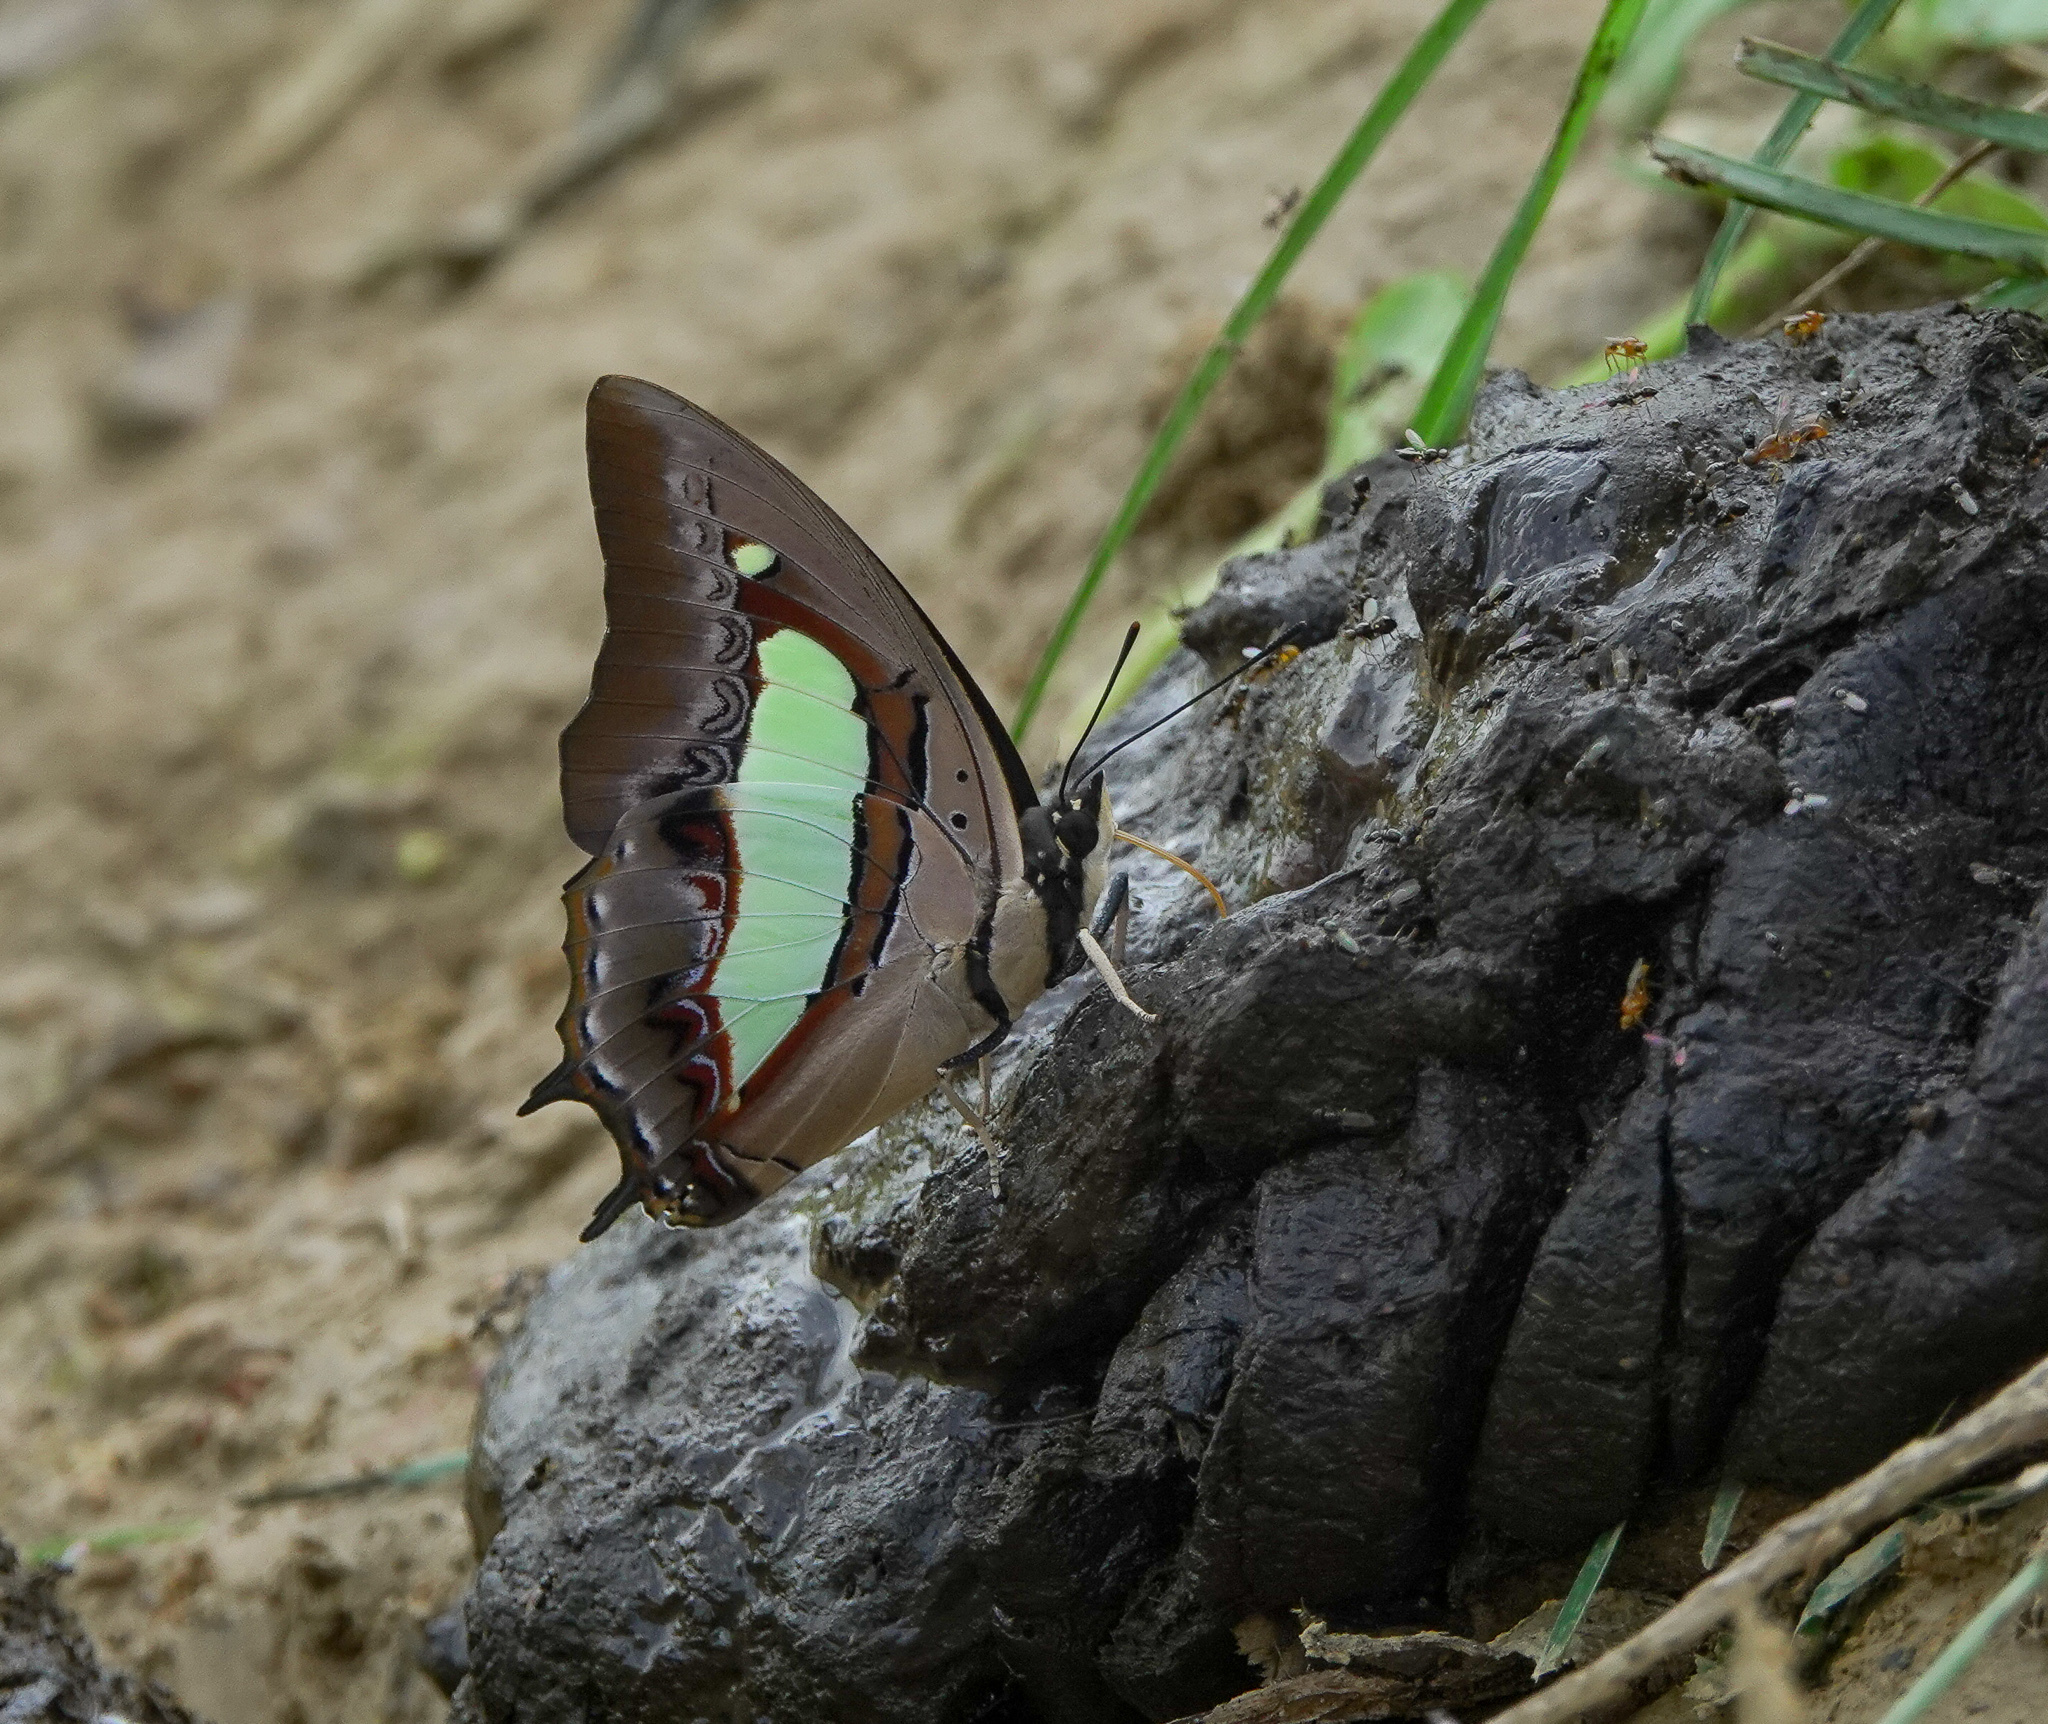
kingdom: Animalia
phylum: Arthropoda
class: Insecta
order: Lepidoptera
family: Nymphalidae
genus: Polyura
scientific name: Polyura
